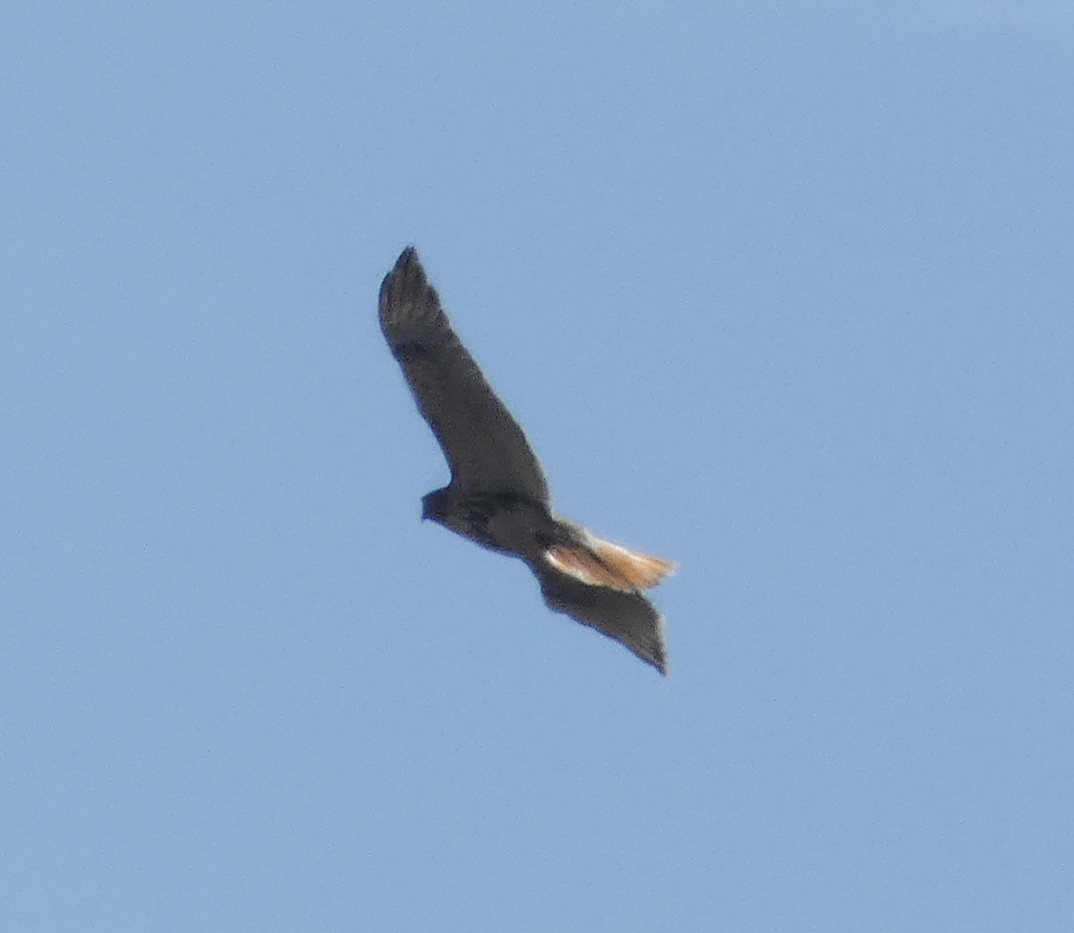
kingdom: Animalia
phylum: Chordata
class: Aves
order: Accipitriformes
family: Accipitridae
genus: Buteo
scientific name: Buteo jamaicensis
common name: Red-tailed hawk
